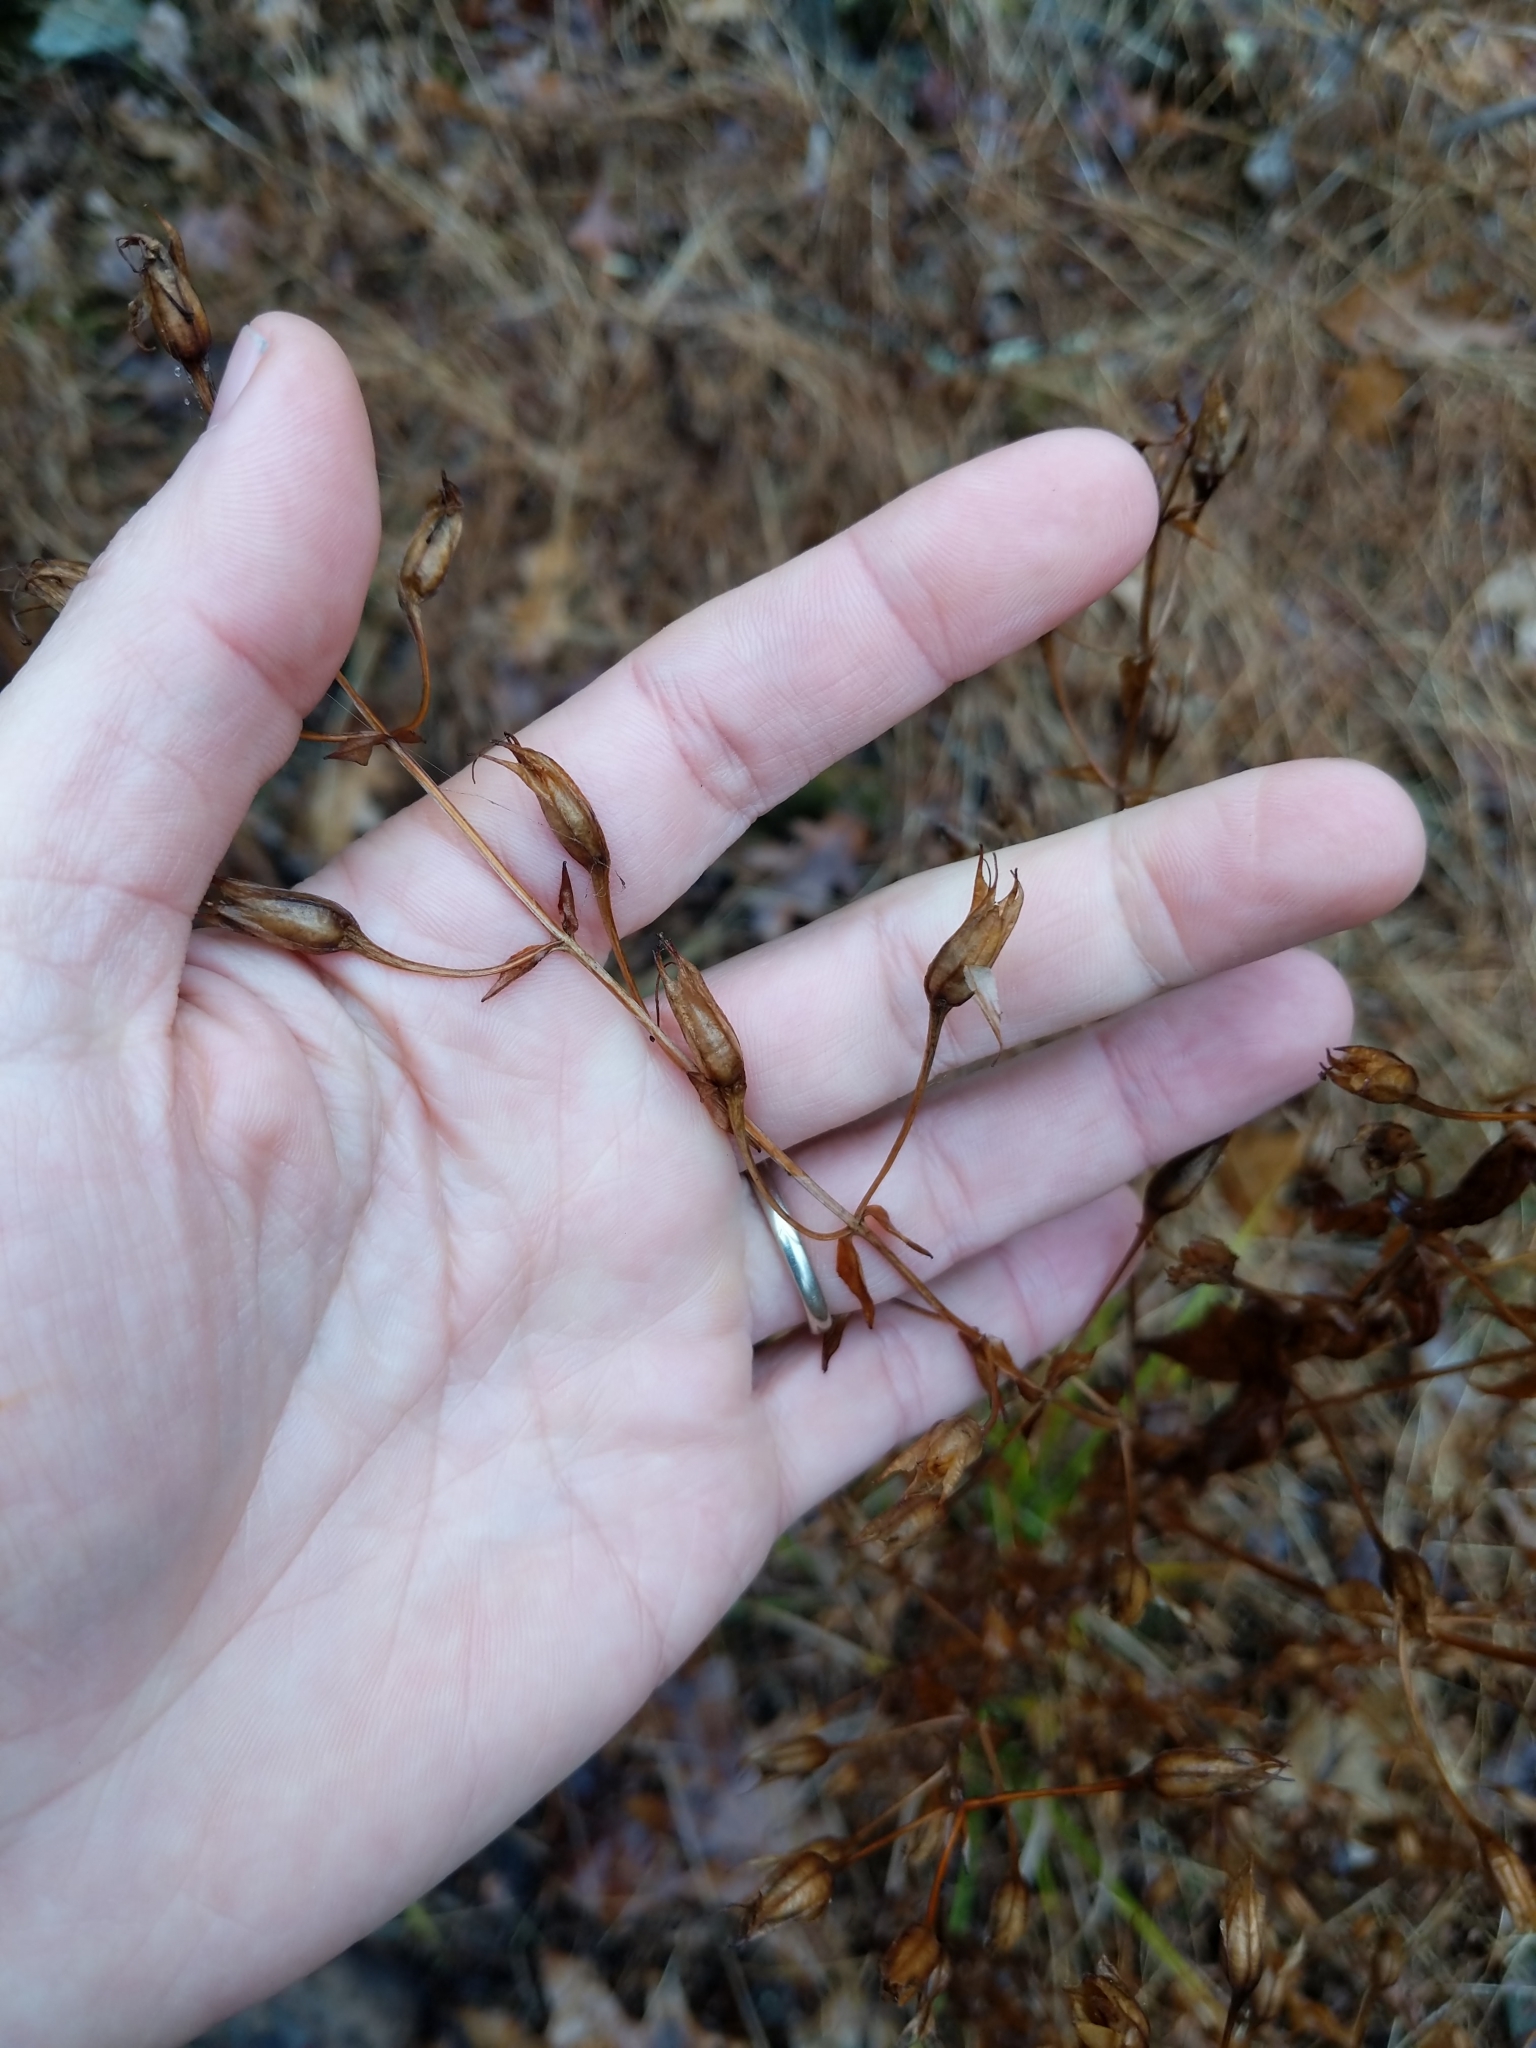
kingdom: Plantae
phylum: Tracheophyta
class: Magnoliopsida
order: Lamiales
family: Phrymaceae
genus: Mimulus
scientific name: Mimulus ringens
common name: Allegheny monkeyflower
